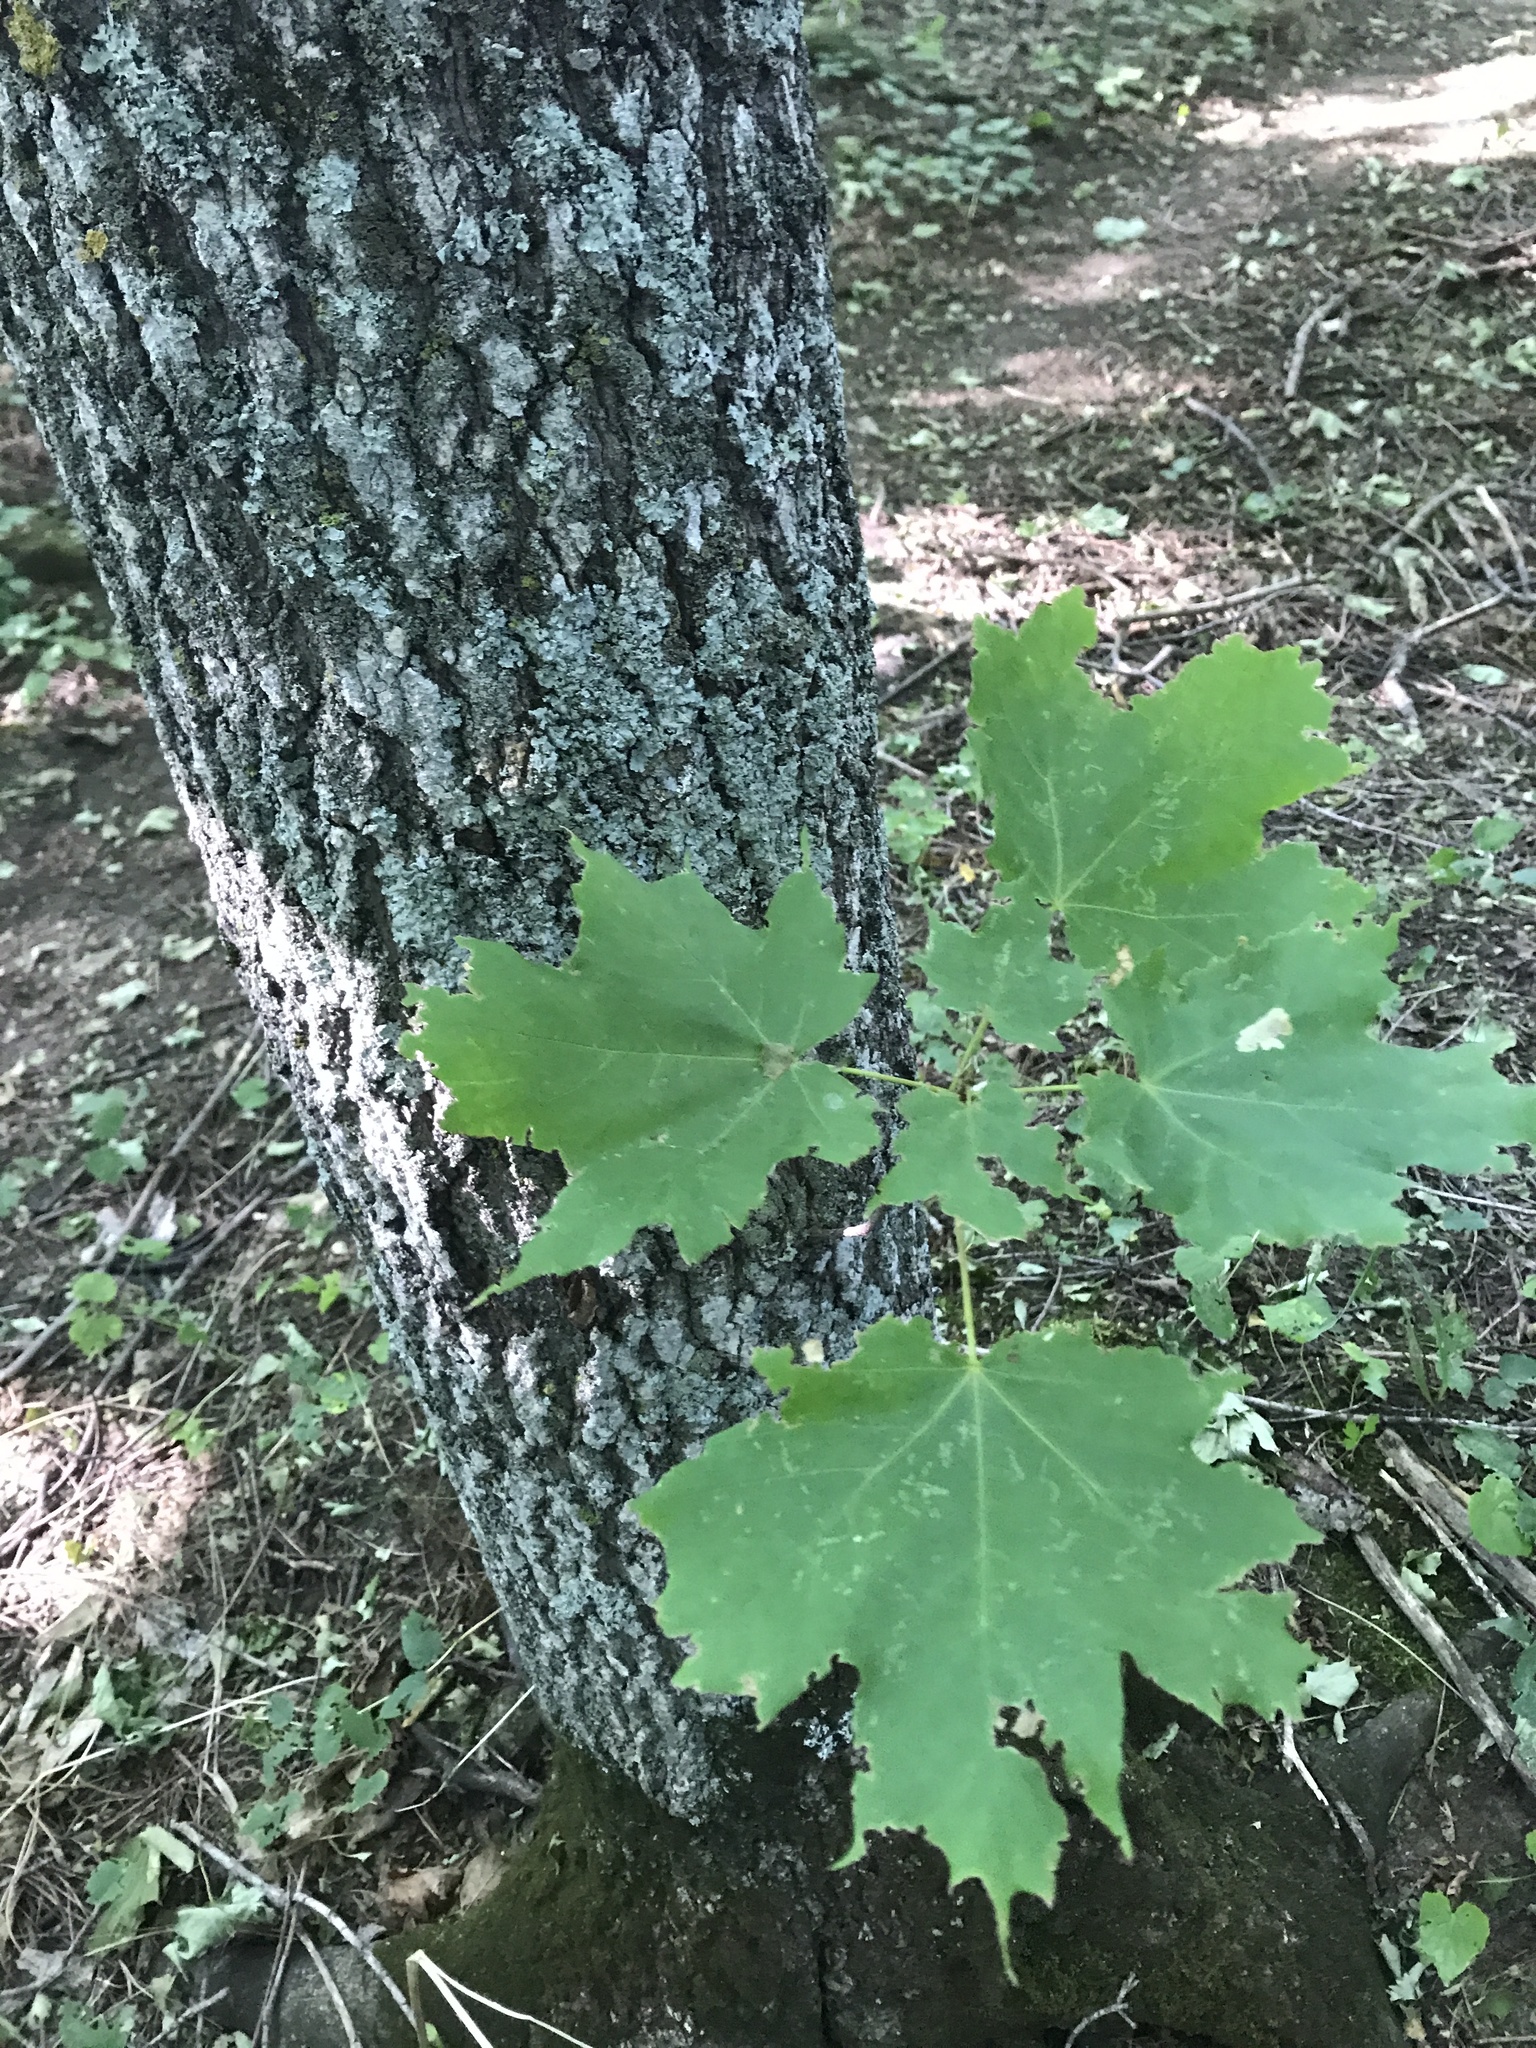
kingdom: Plantae
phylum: Tracheophyta
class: Magnoliopsida
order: Sapindales
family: Sapindaceae
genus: Acer
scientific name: Acer saccharum
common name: Sugar maple
